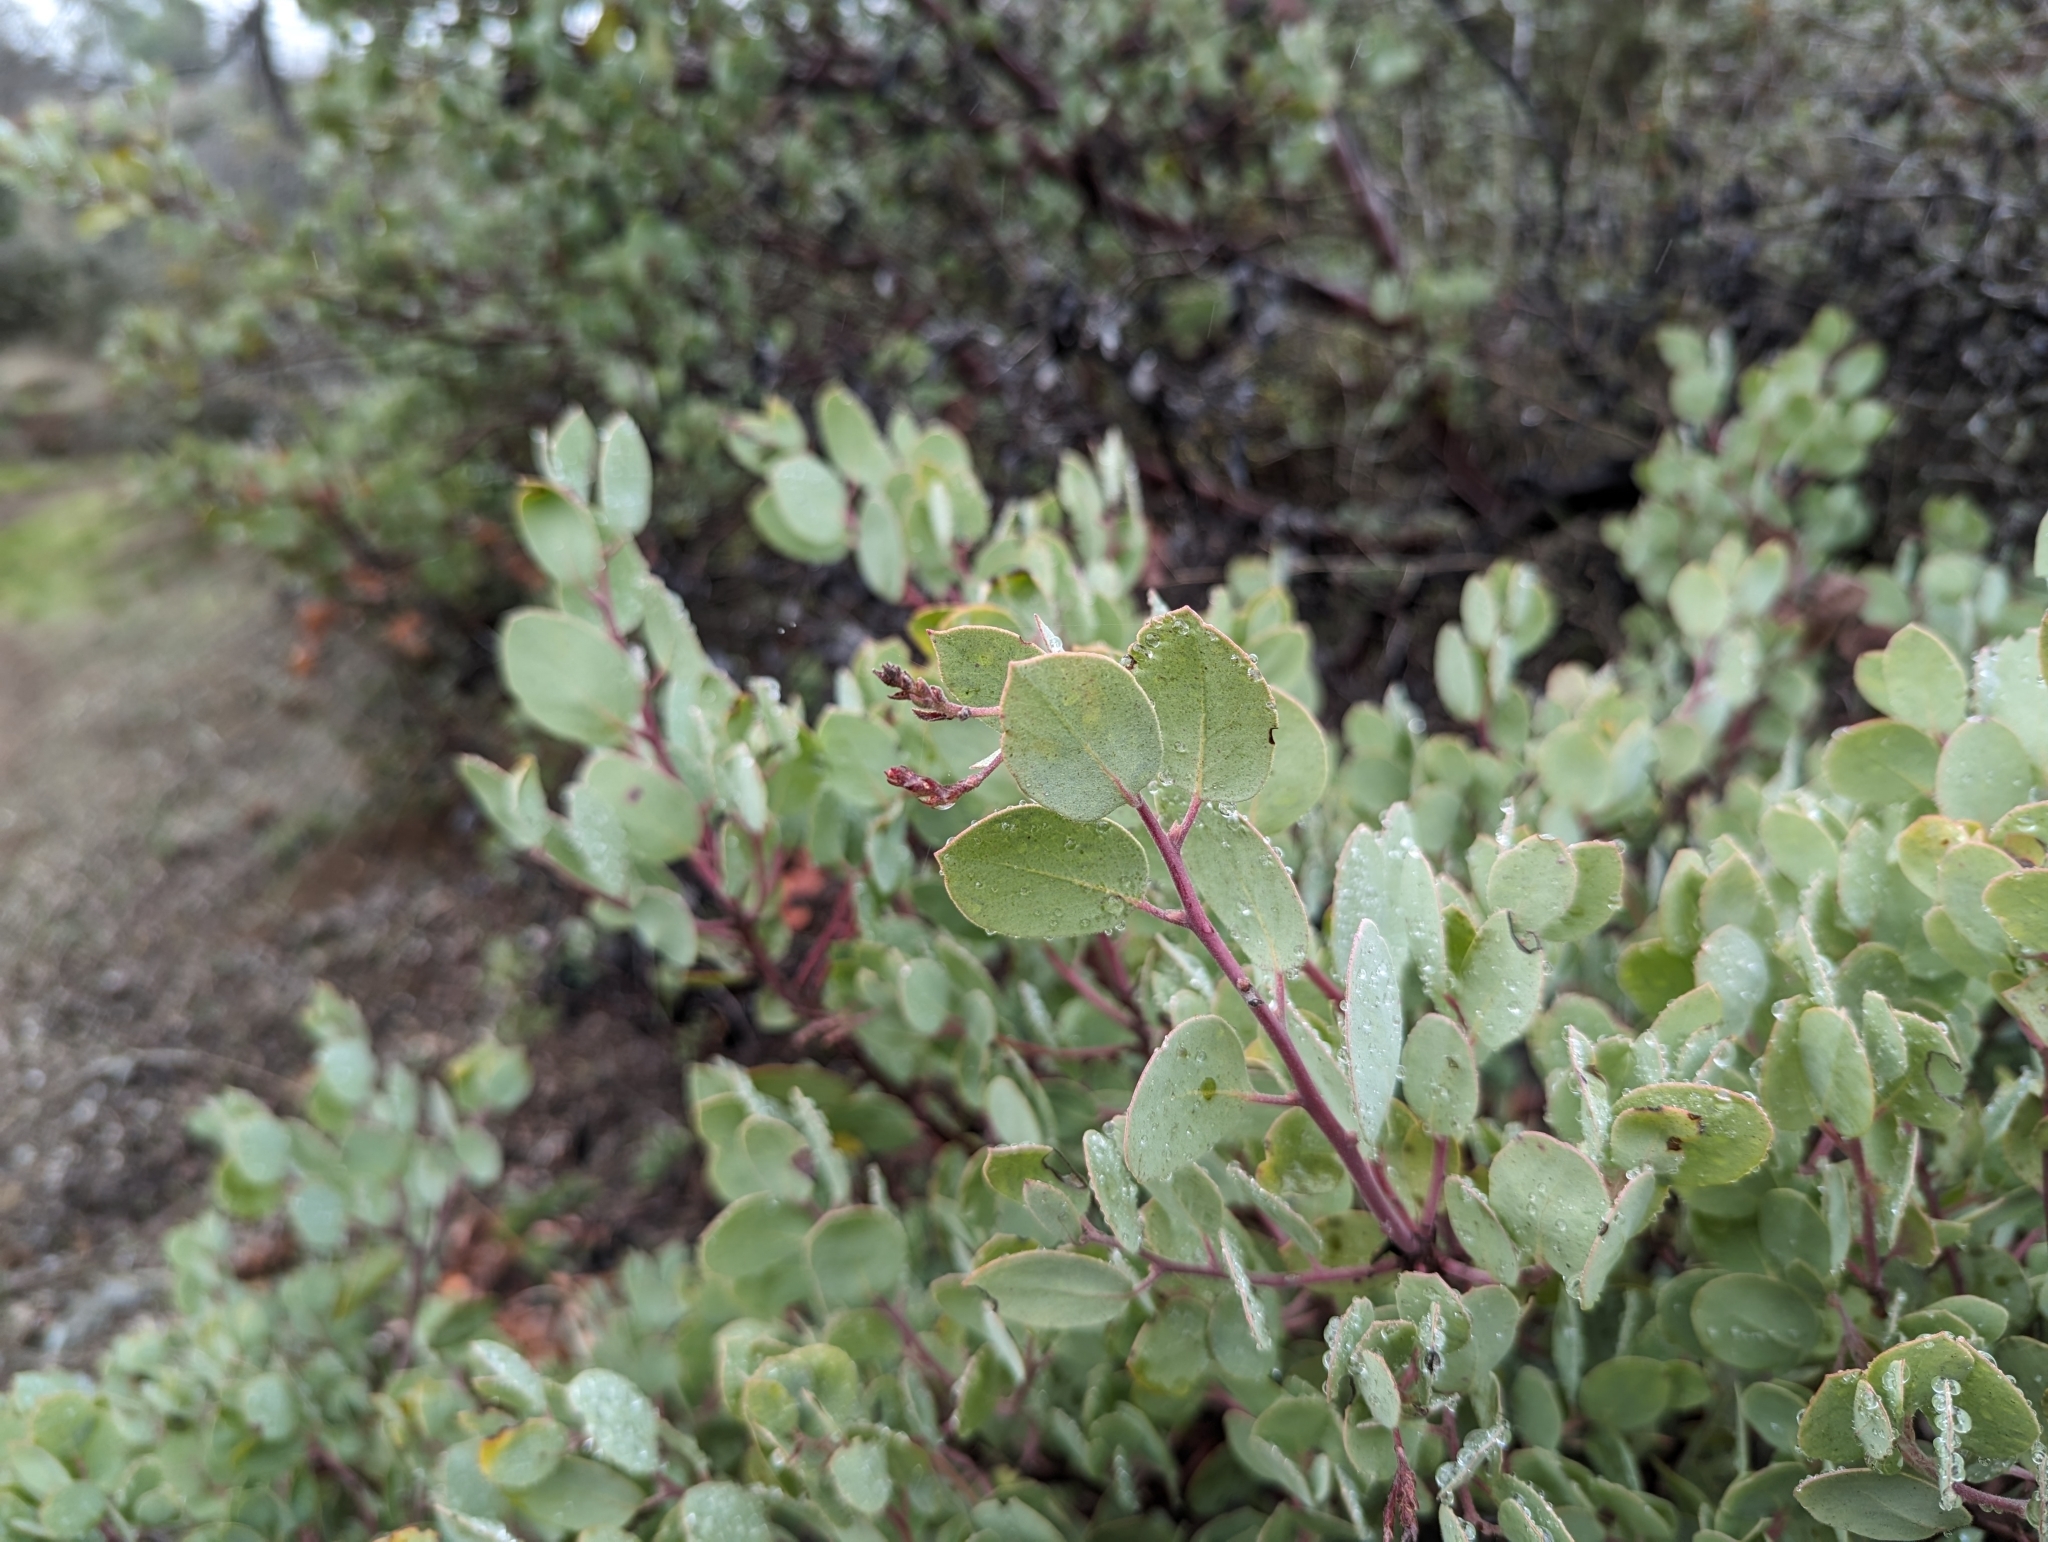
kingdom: Plantae
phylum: Tracheophyta
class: Magnoliopsida
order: Ericales
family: Ericaceae
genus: Arctostaphylos
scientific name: Arctostaphylos viscida
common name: White-leaf manzanita
